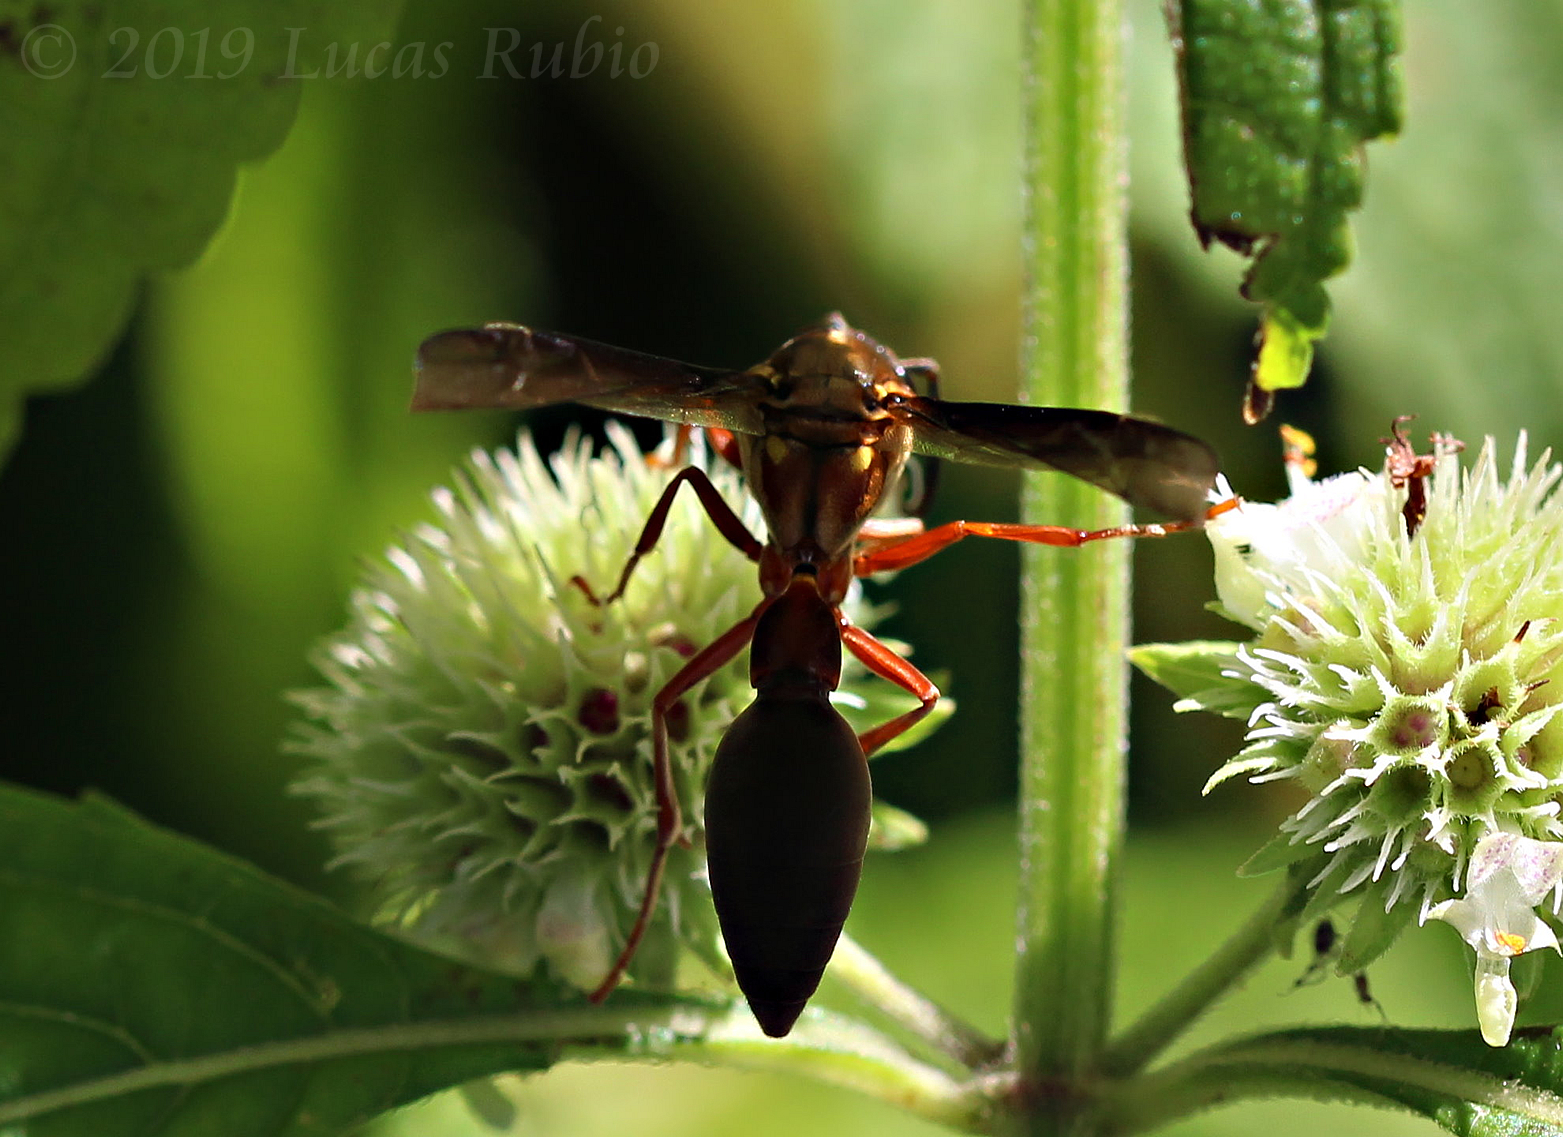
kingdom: Animalia
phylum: Arthropoda
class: Insecta
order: Hymenoptera
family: Eumenidae
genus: Pachymenes
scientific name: Pachymenes sericeus
